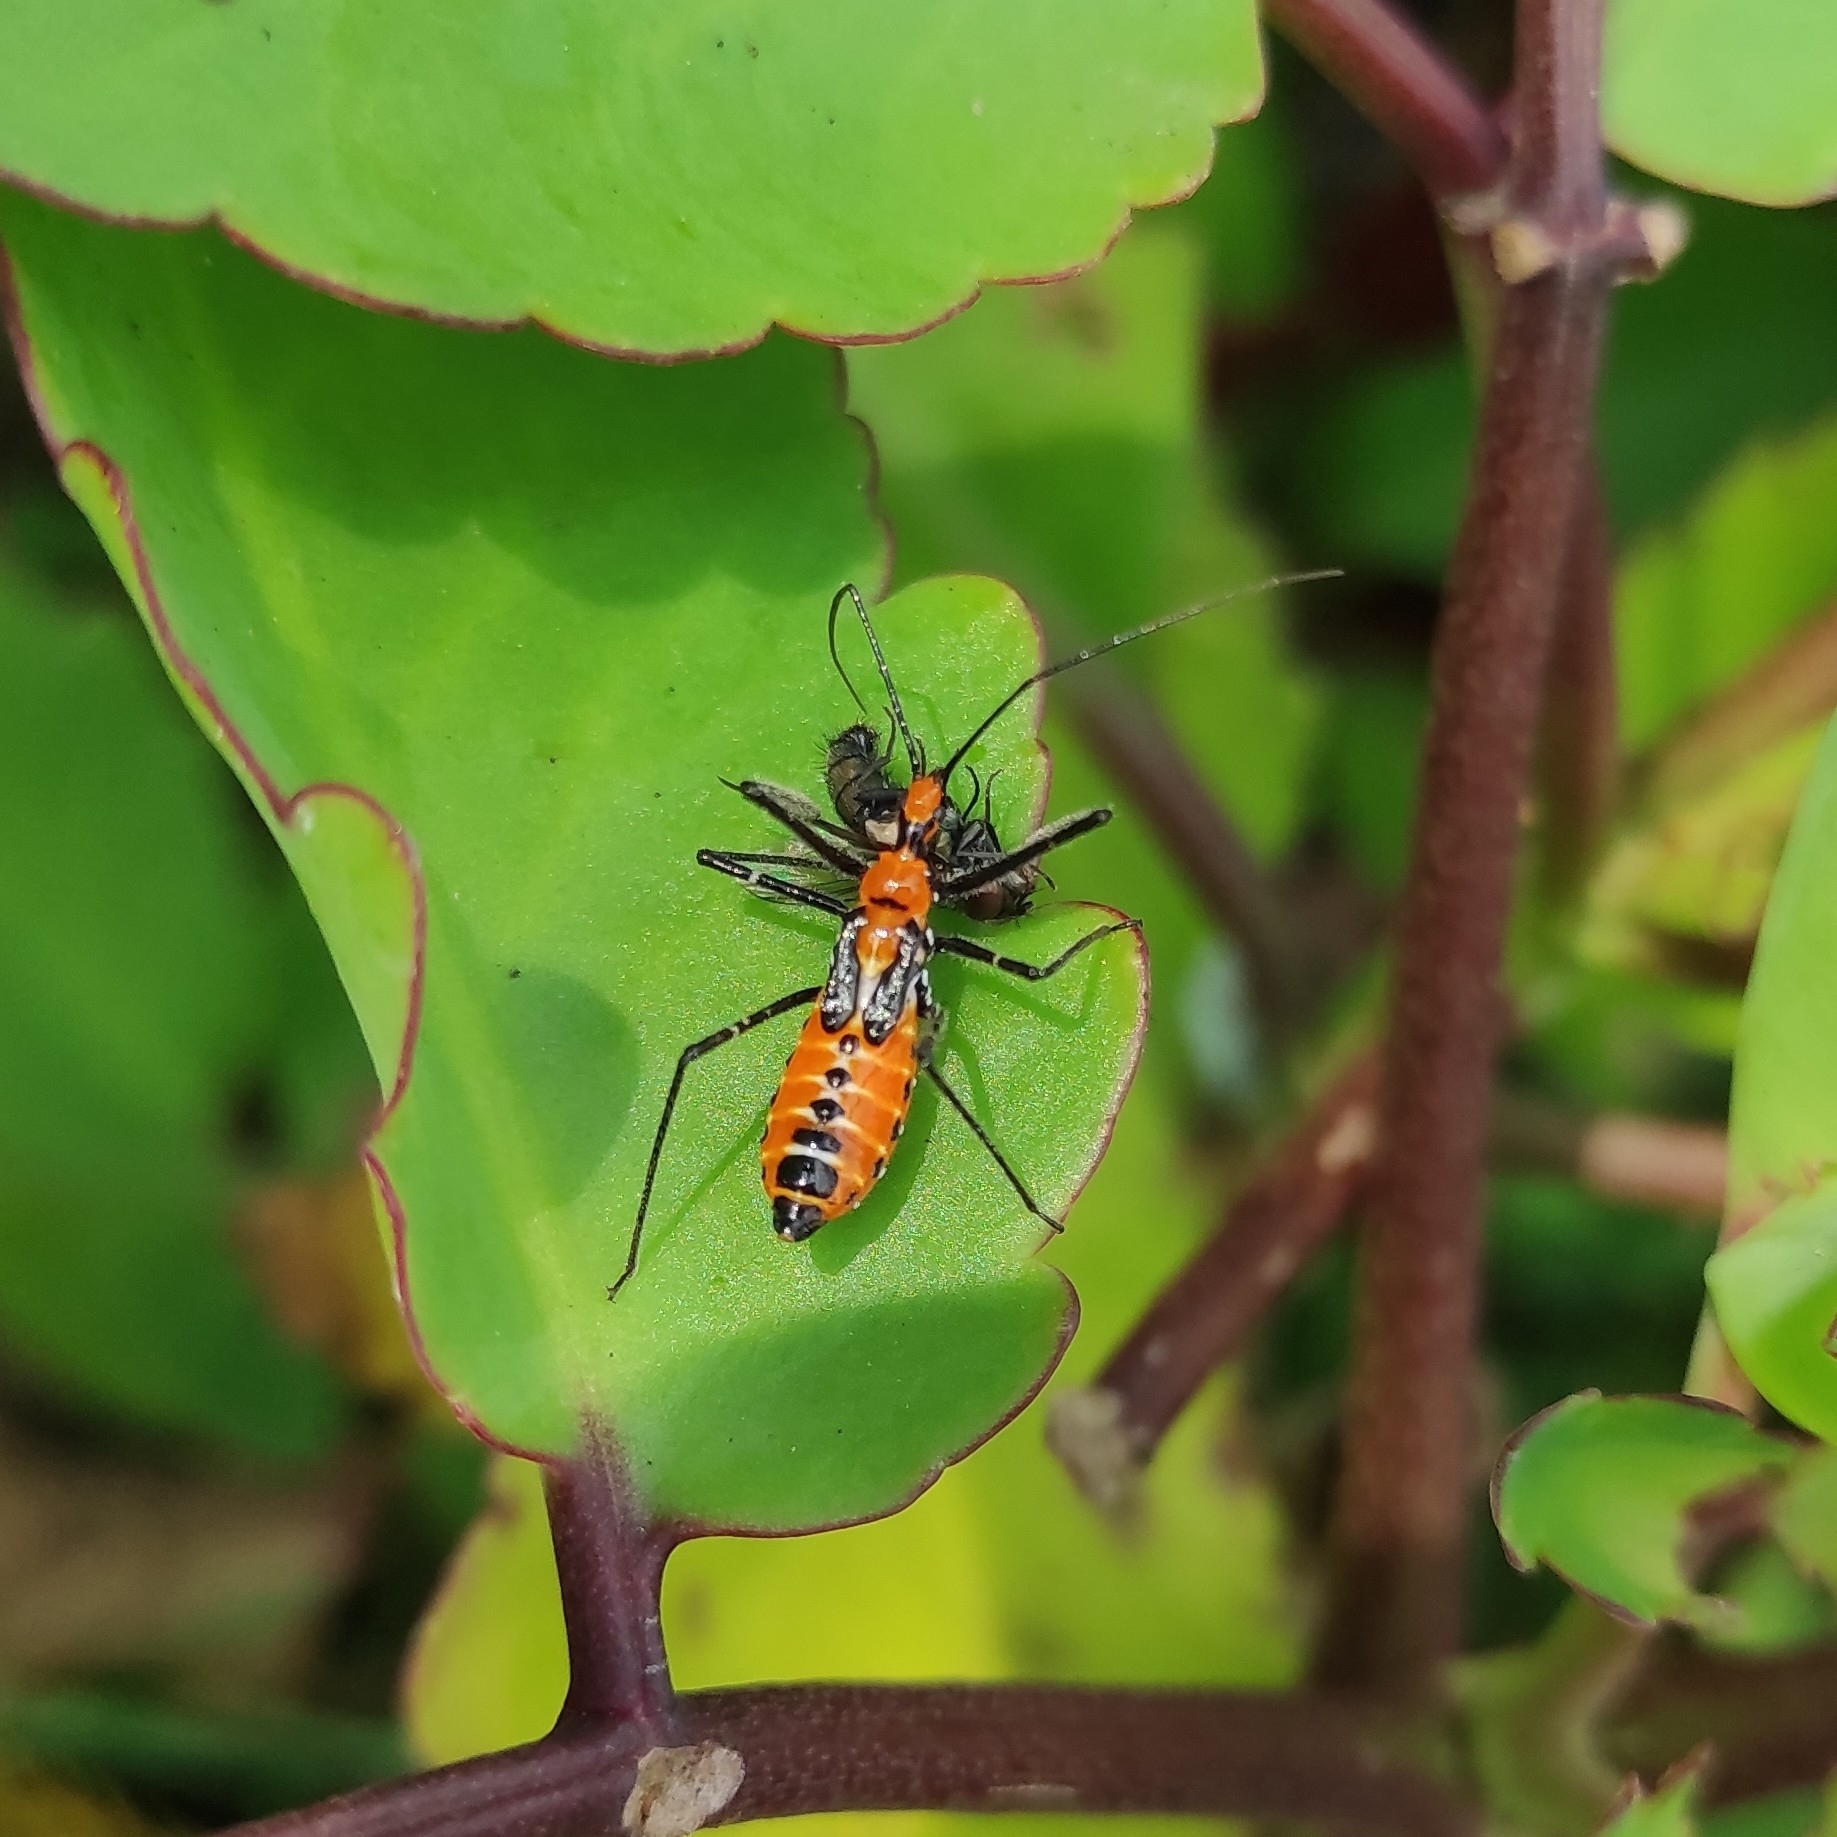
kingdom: Animalia
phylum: Arthropoda
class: Insecta
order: Hemiptera
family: Reduviidae
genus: Zelus
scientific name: Zelus longipes
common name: Milkweed assassin bug
